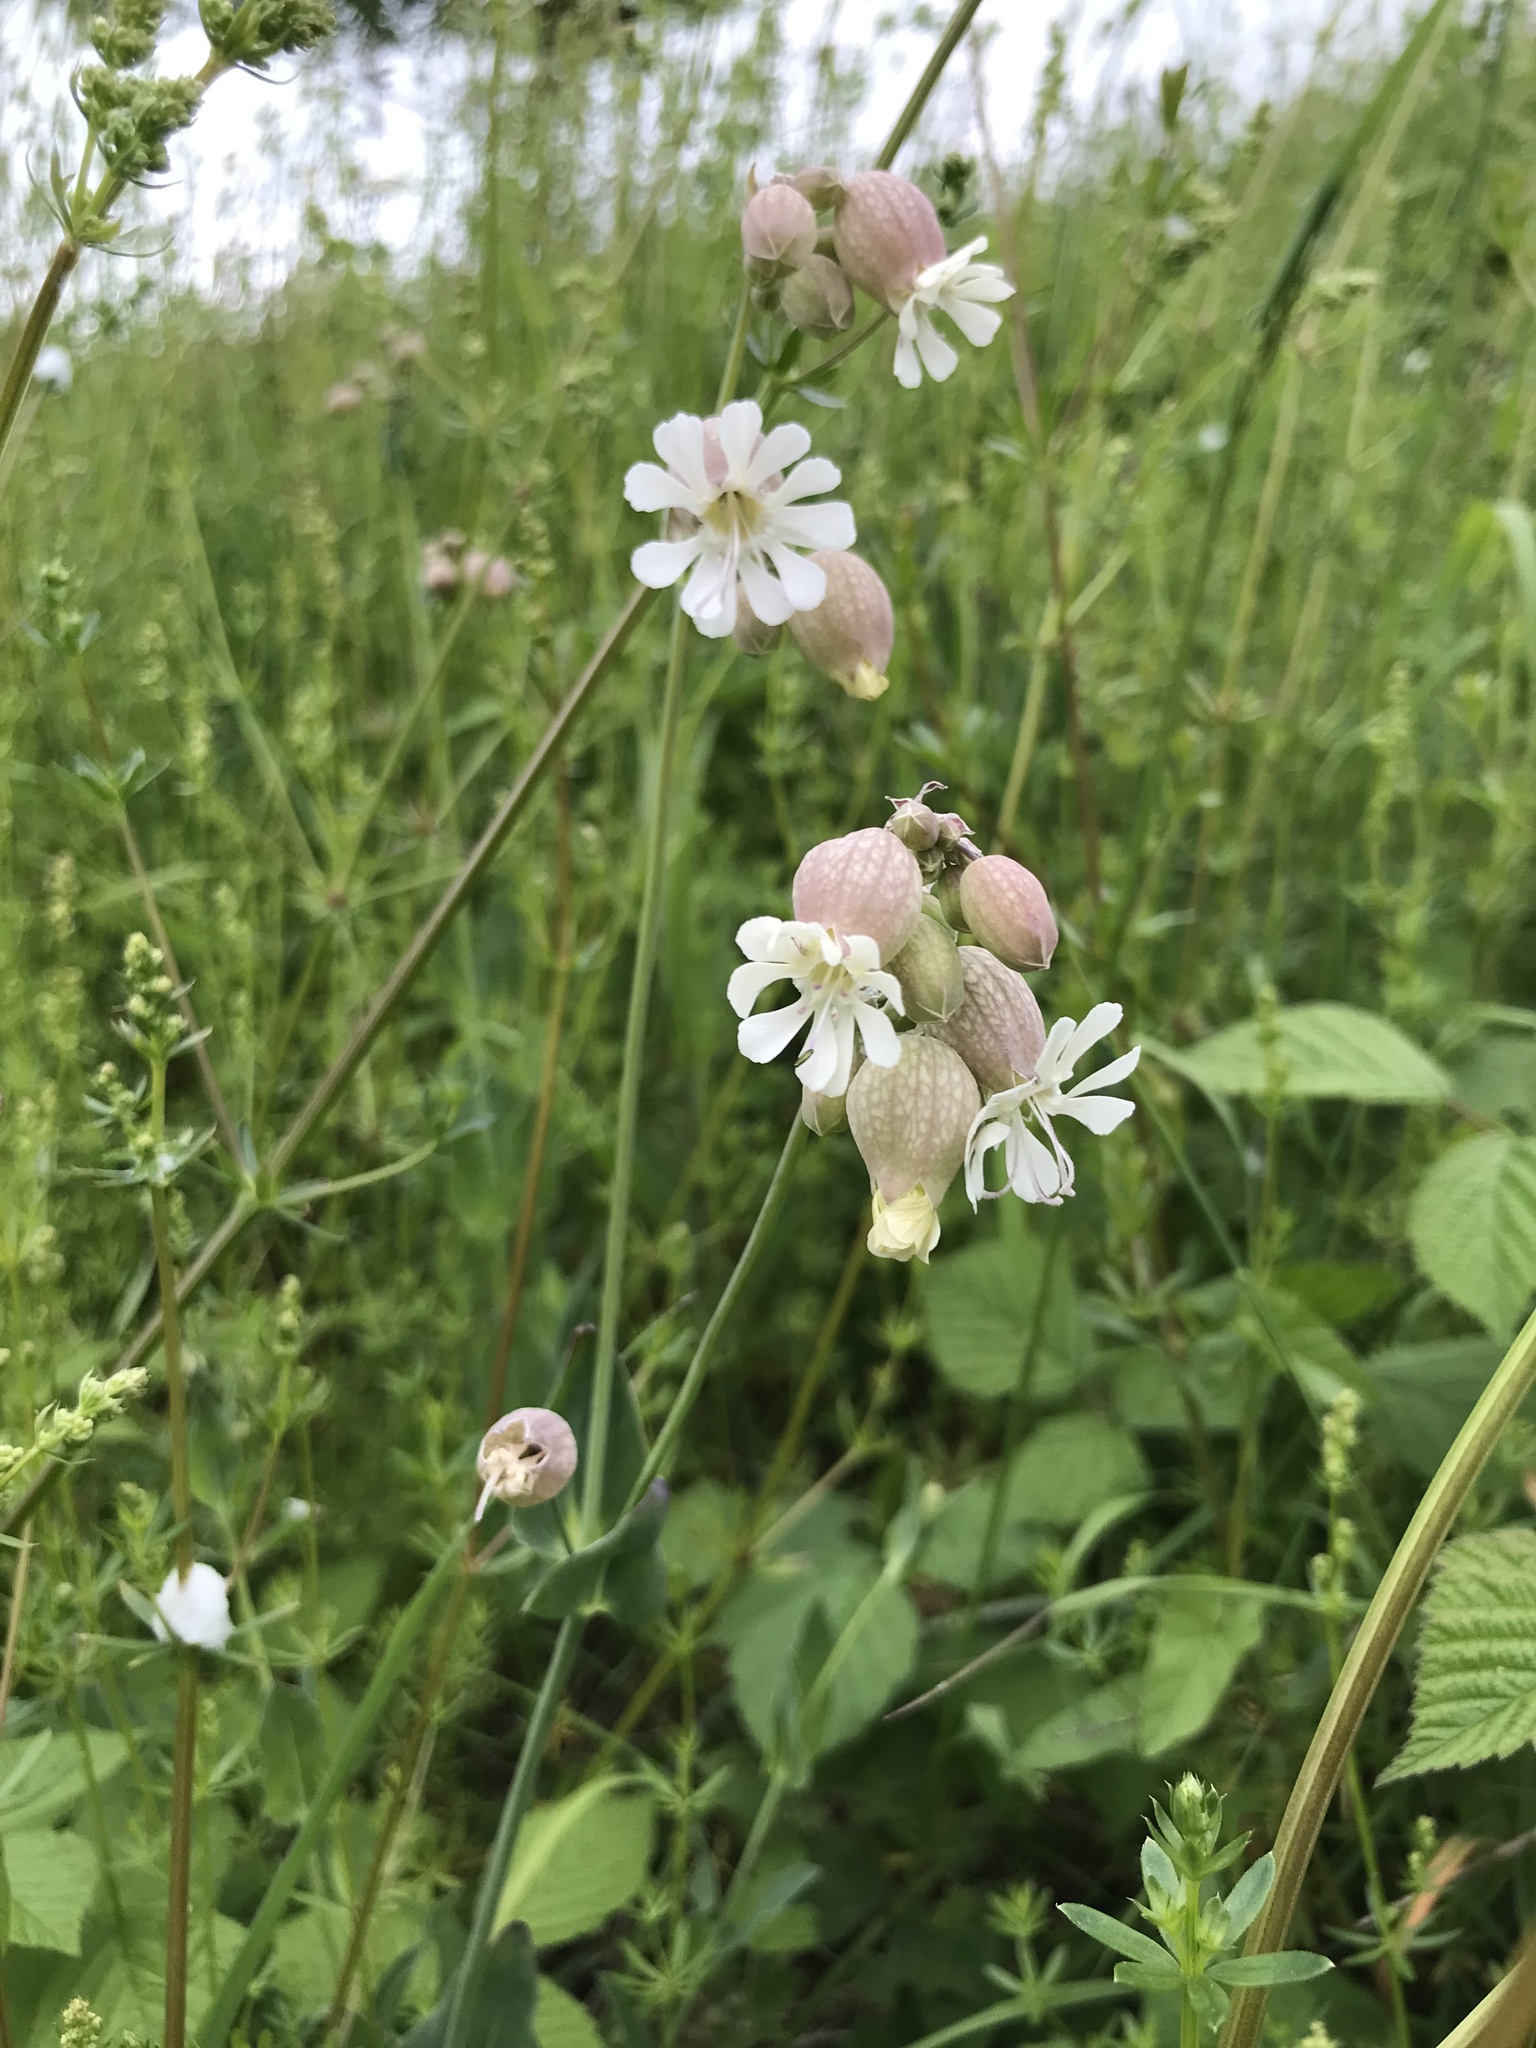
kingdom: Plantae
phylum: Tracheophyta
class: Magnoliopsida
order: Caryophyllales
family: Caryophyllaceae
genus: Silene
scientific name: Silene vulgaris
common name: Bladder campion
